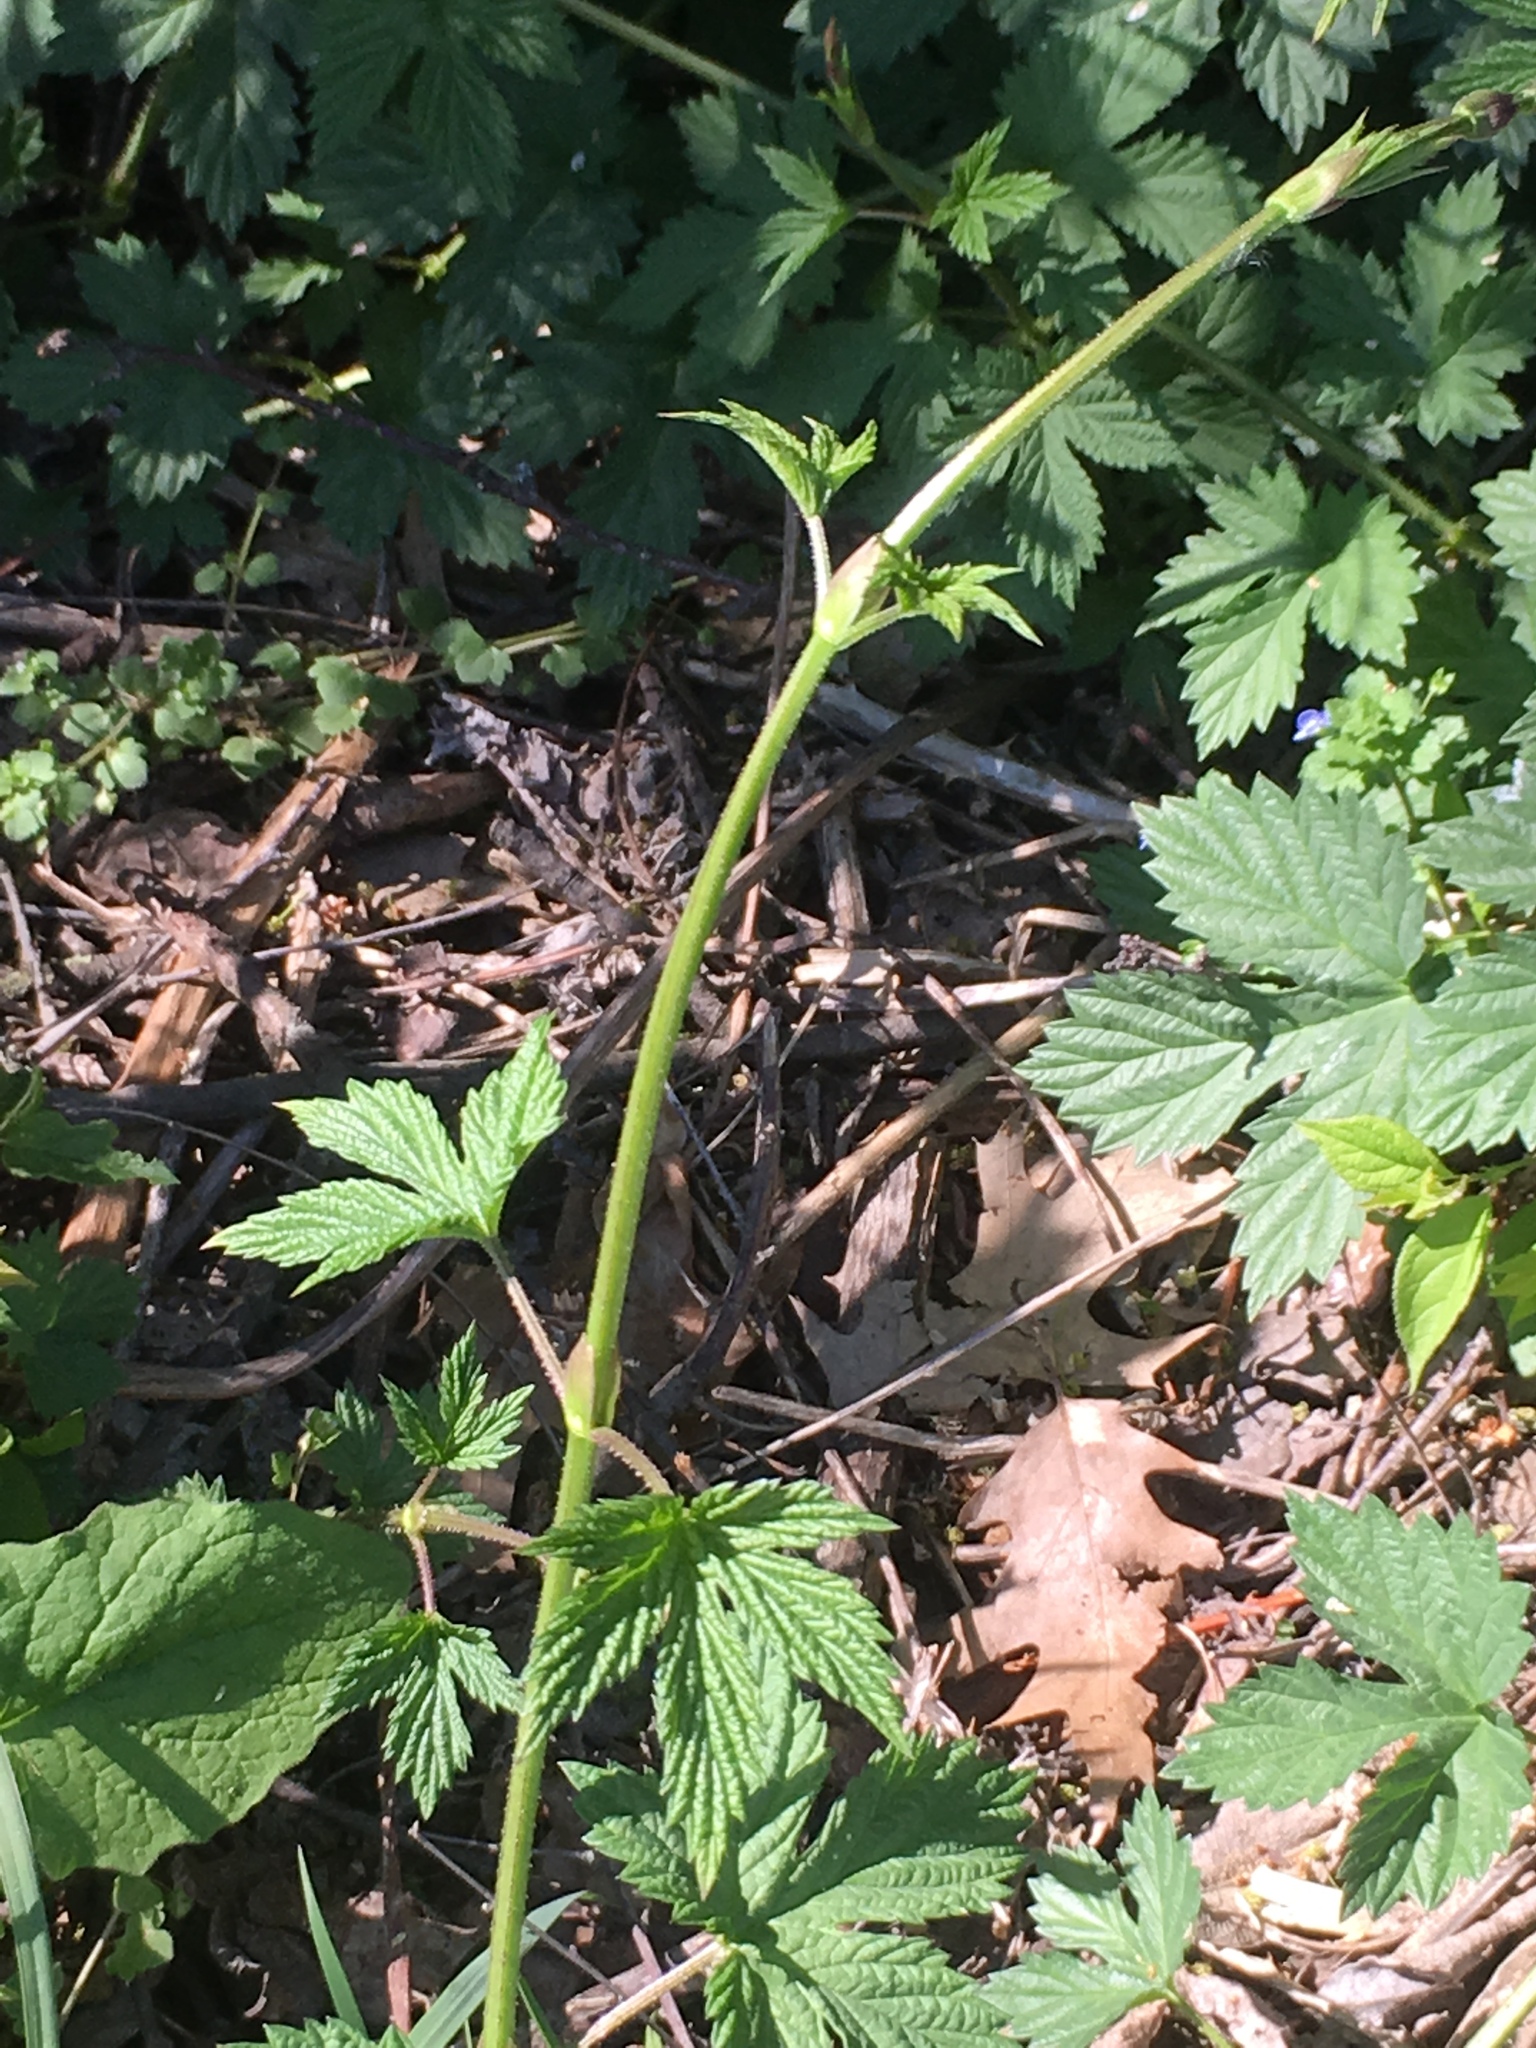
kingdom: Plantae
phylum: Tracheophyta
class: Magnoliopsida
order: Rosales
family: Cannabaceae
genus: Humulus
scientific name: Humulus lupulus
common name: Hop
